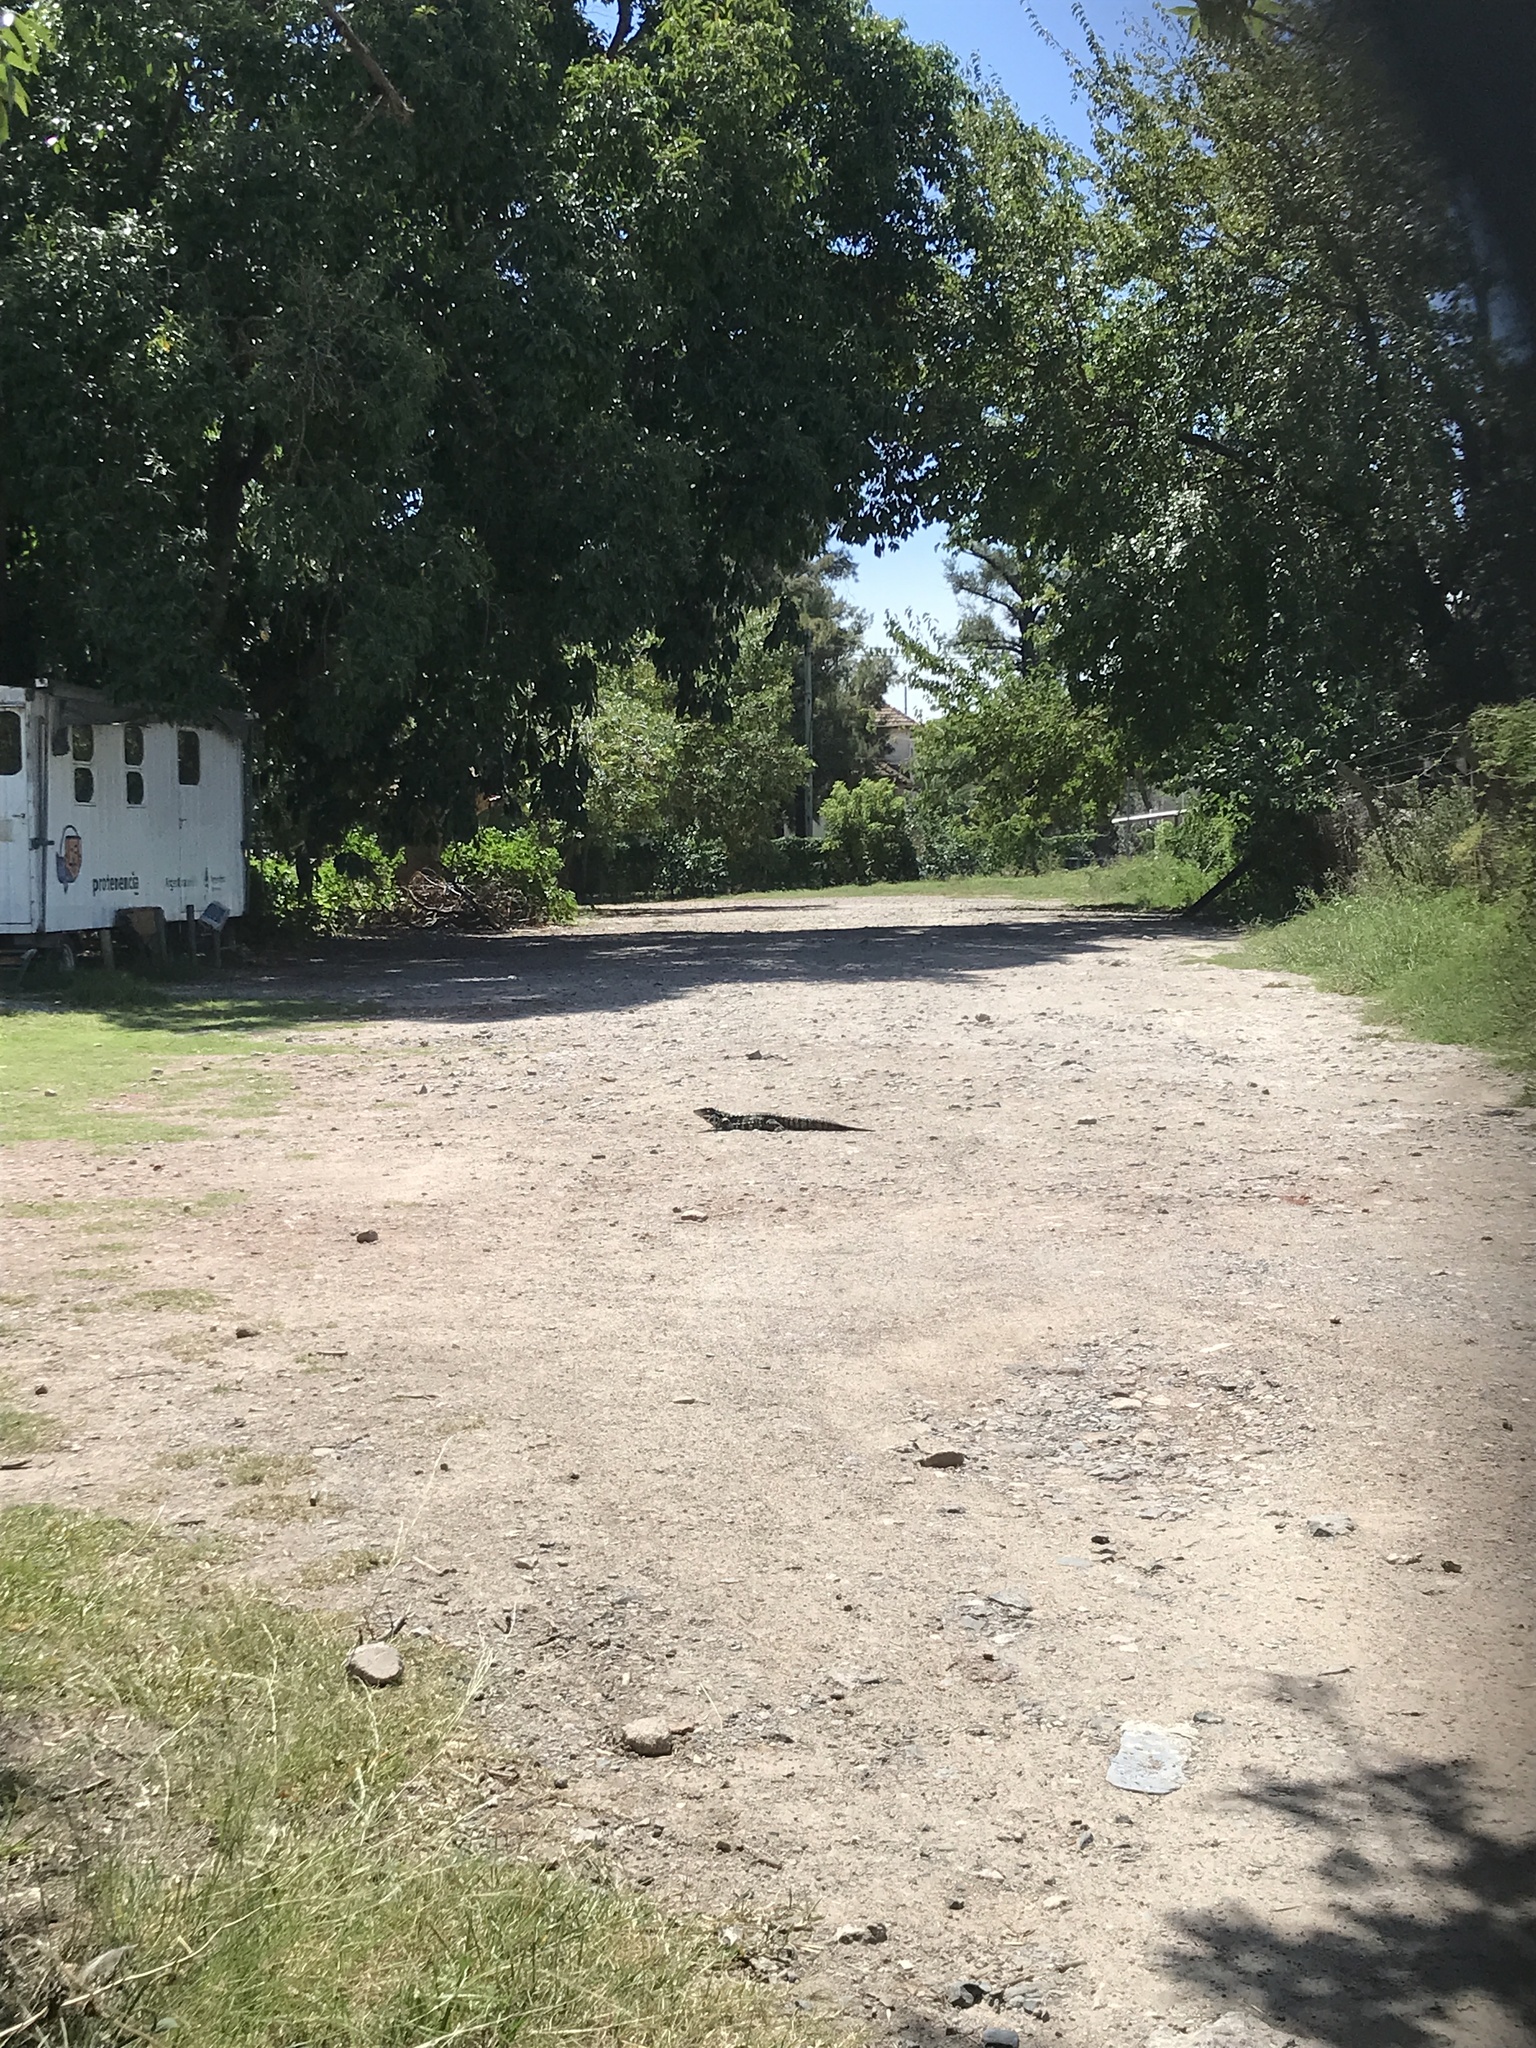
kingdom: Animalia
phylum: Chordata
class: Squamata
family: Teiidae
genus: Salvator
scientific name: Salvator merianae
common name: Argentine black and white tegu
